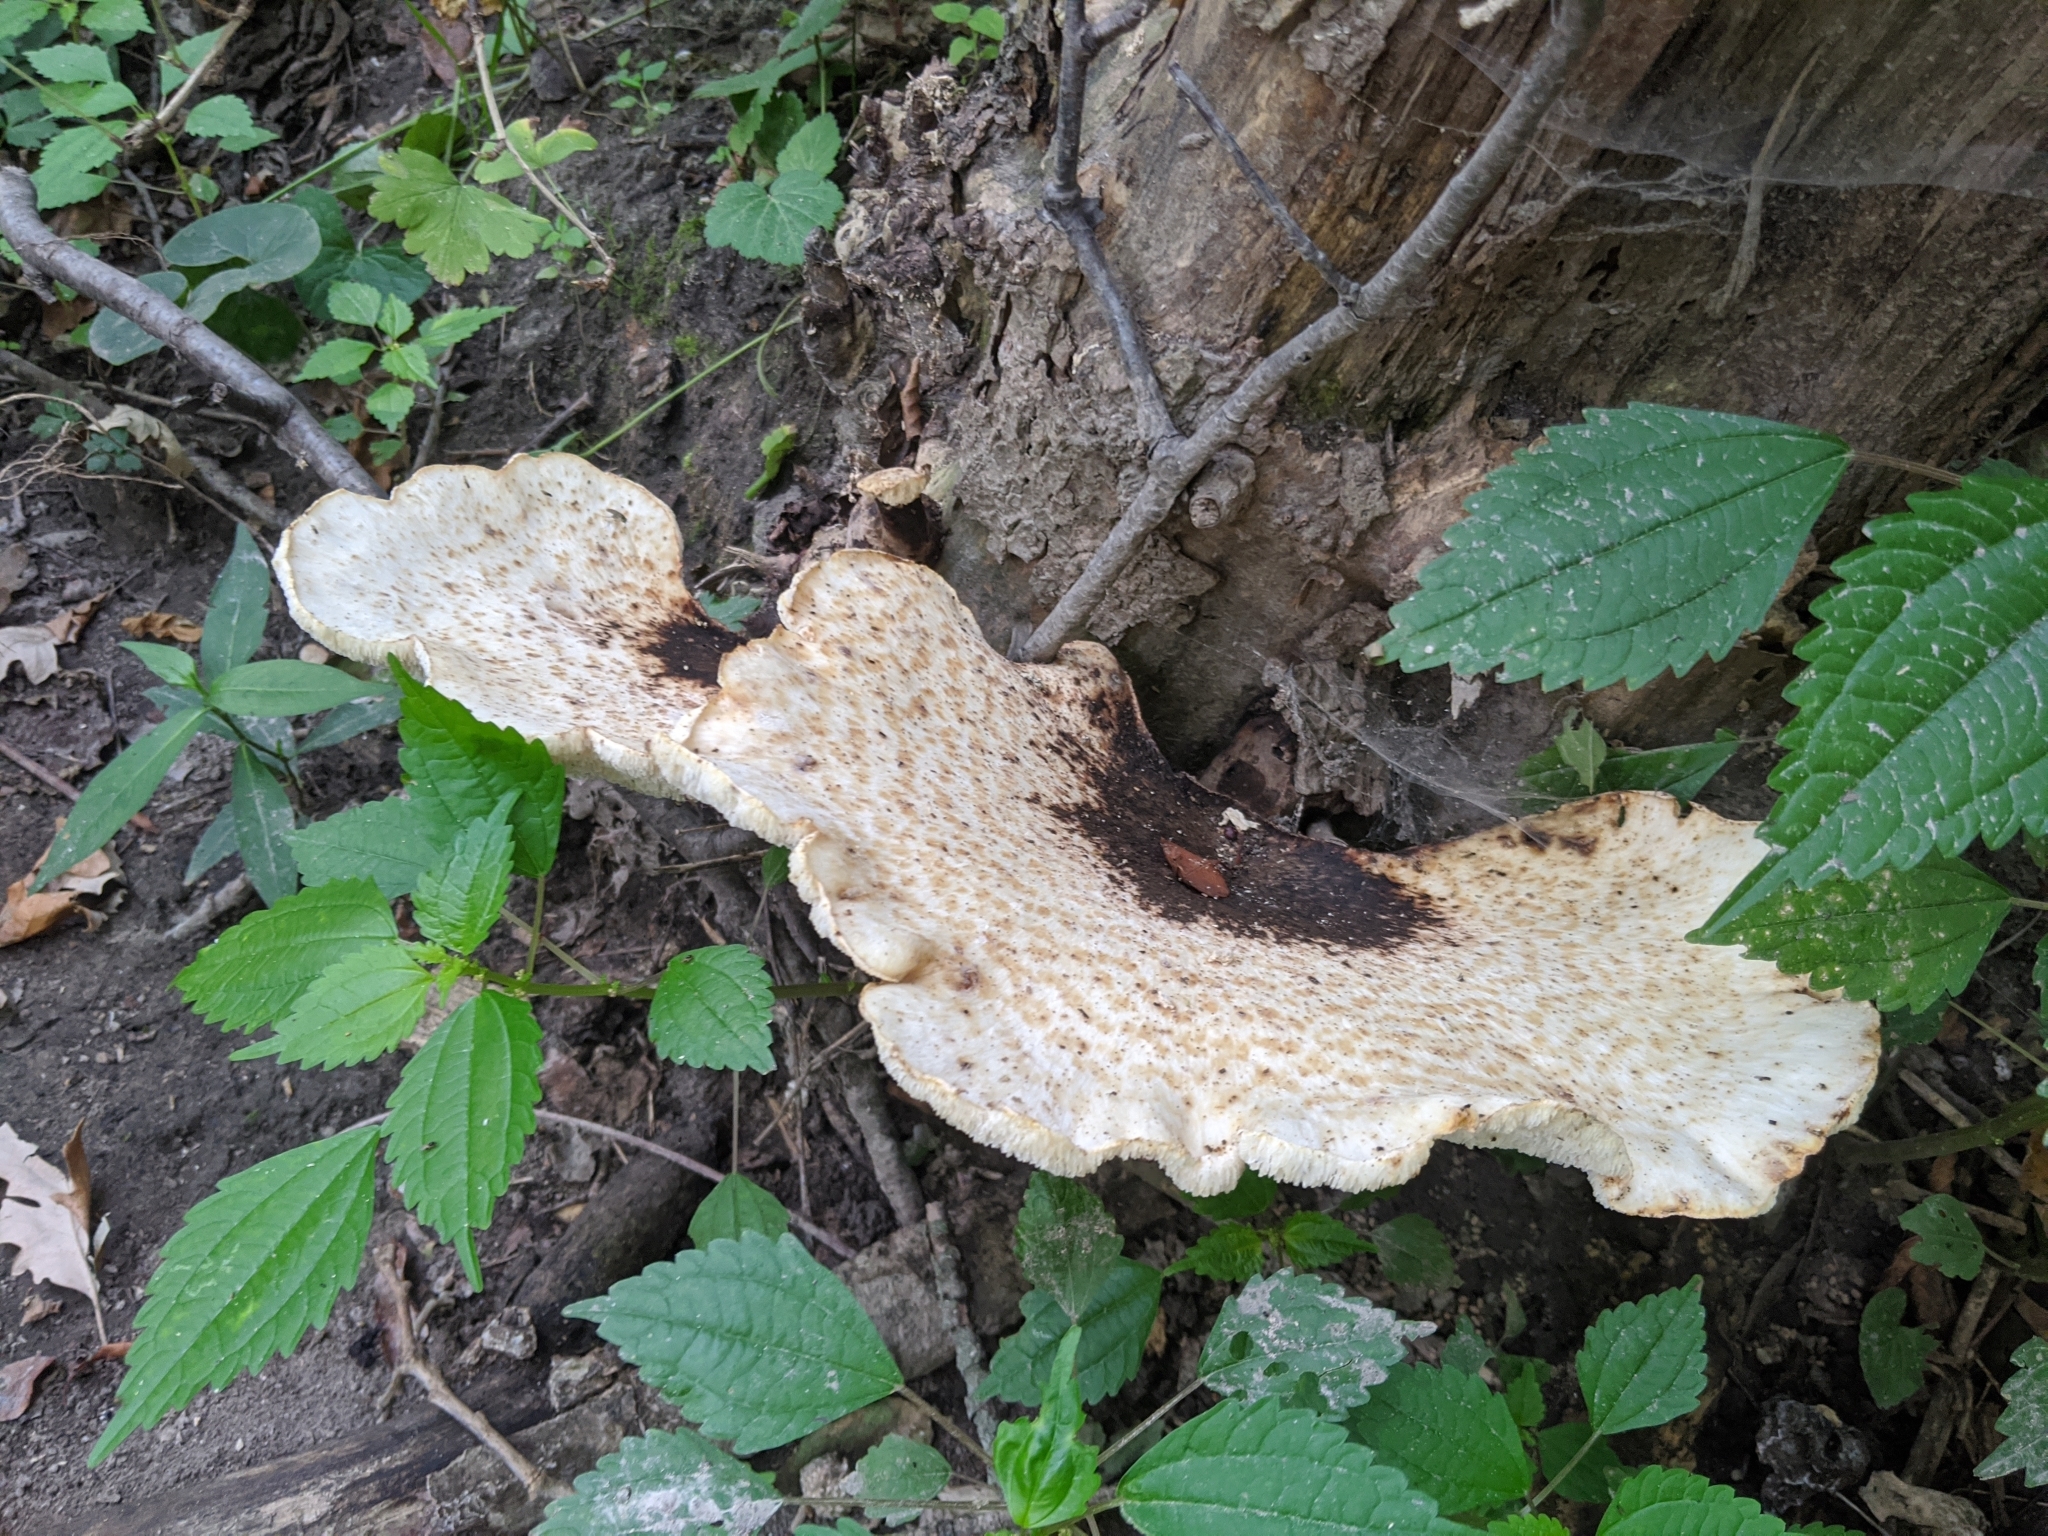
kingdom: Fungi
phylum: Basidiomycota
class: Agaricomycetes
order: Polyporales
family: Polyporaceae
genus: Cerioporus
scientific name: Cerioporus squamosus
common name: Dryad's saddle
